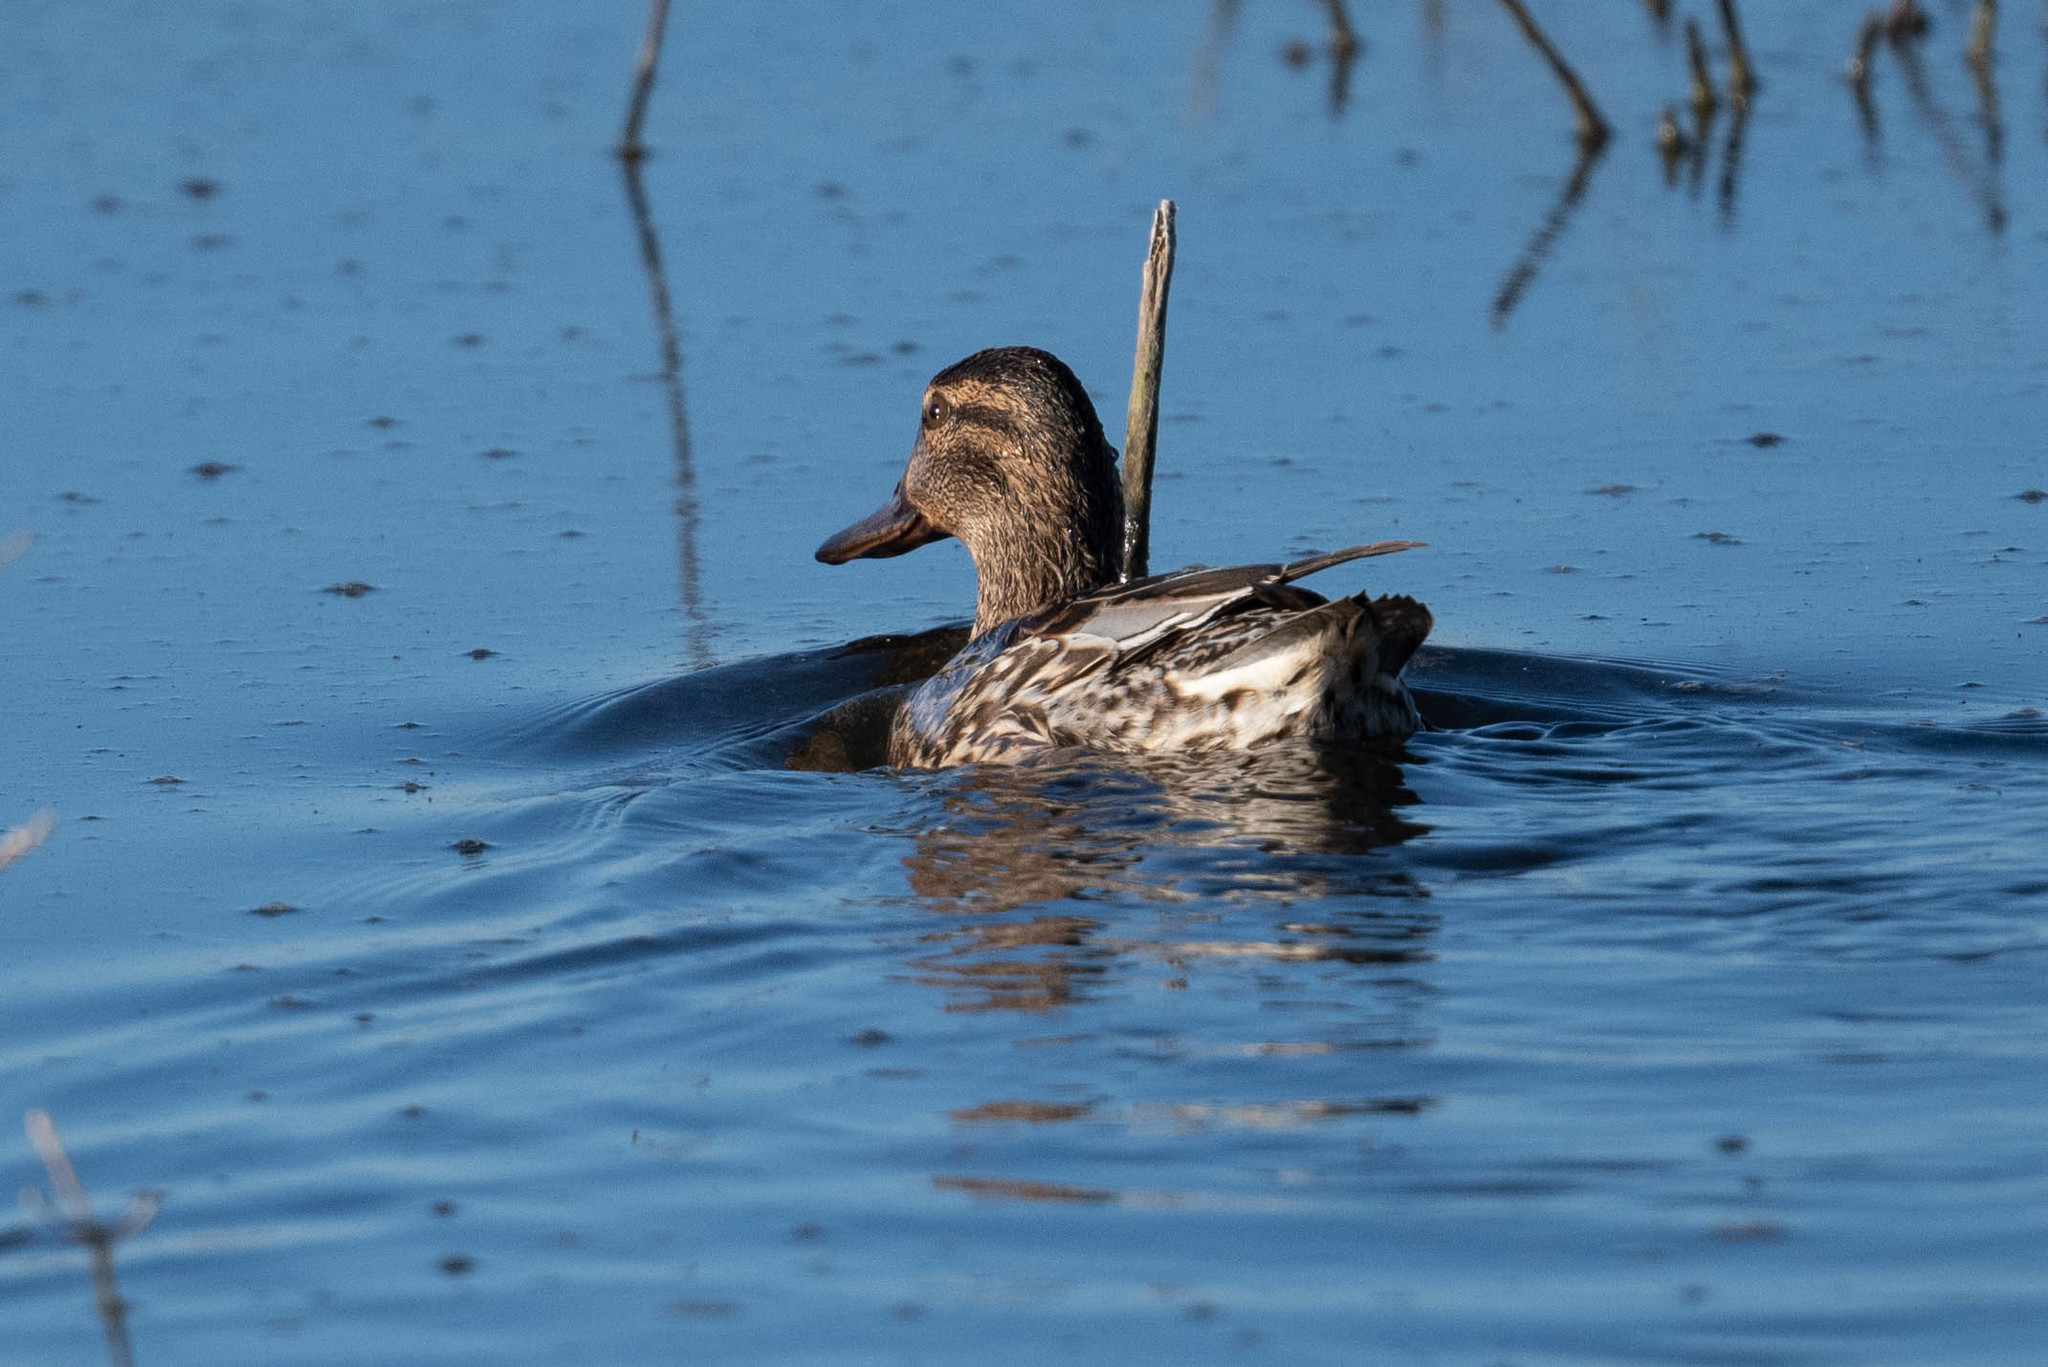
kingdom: Animalia
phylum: Chordata
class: Aves
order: Anseriformes
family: Anatidae
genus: Anas
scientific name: Anas crecca
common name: Eurasian teal
